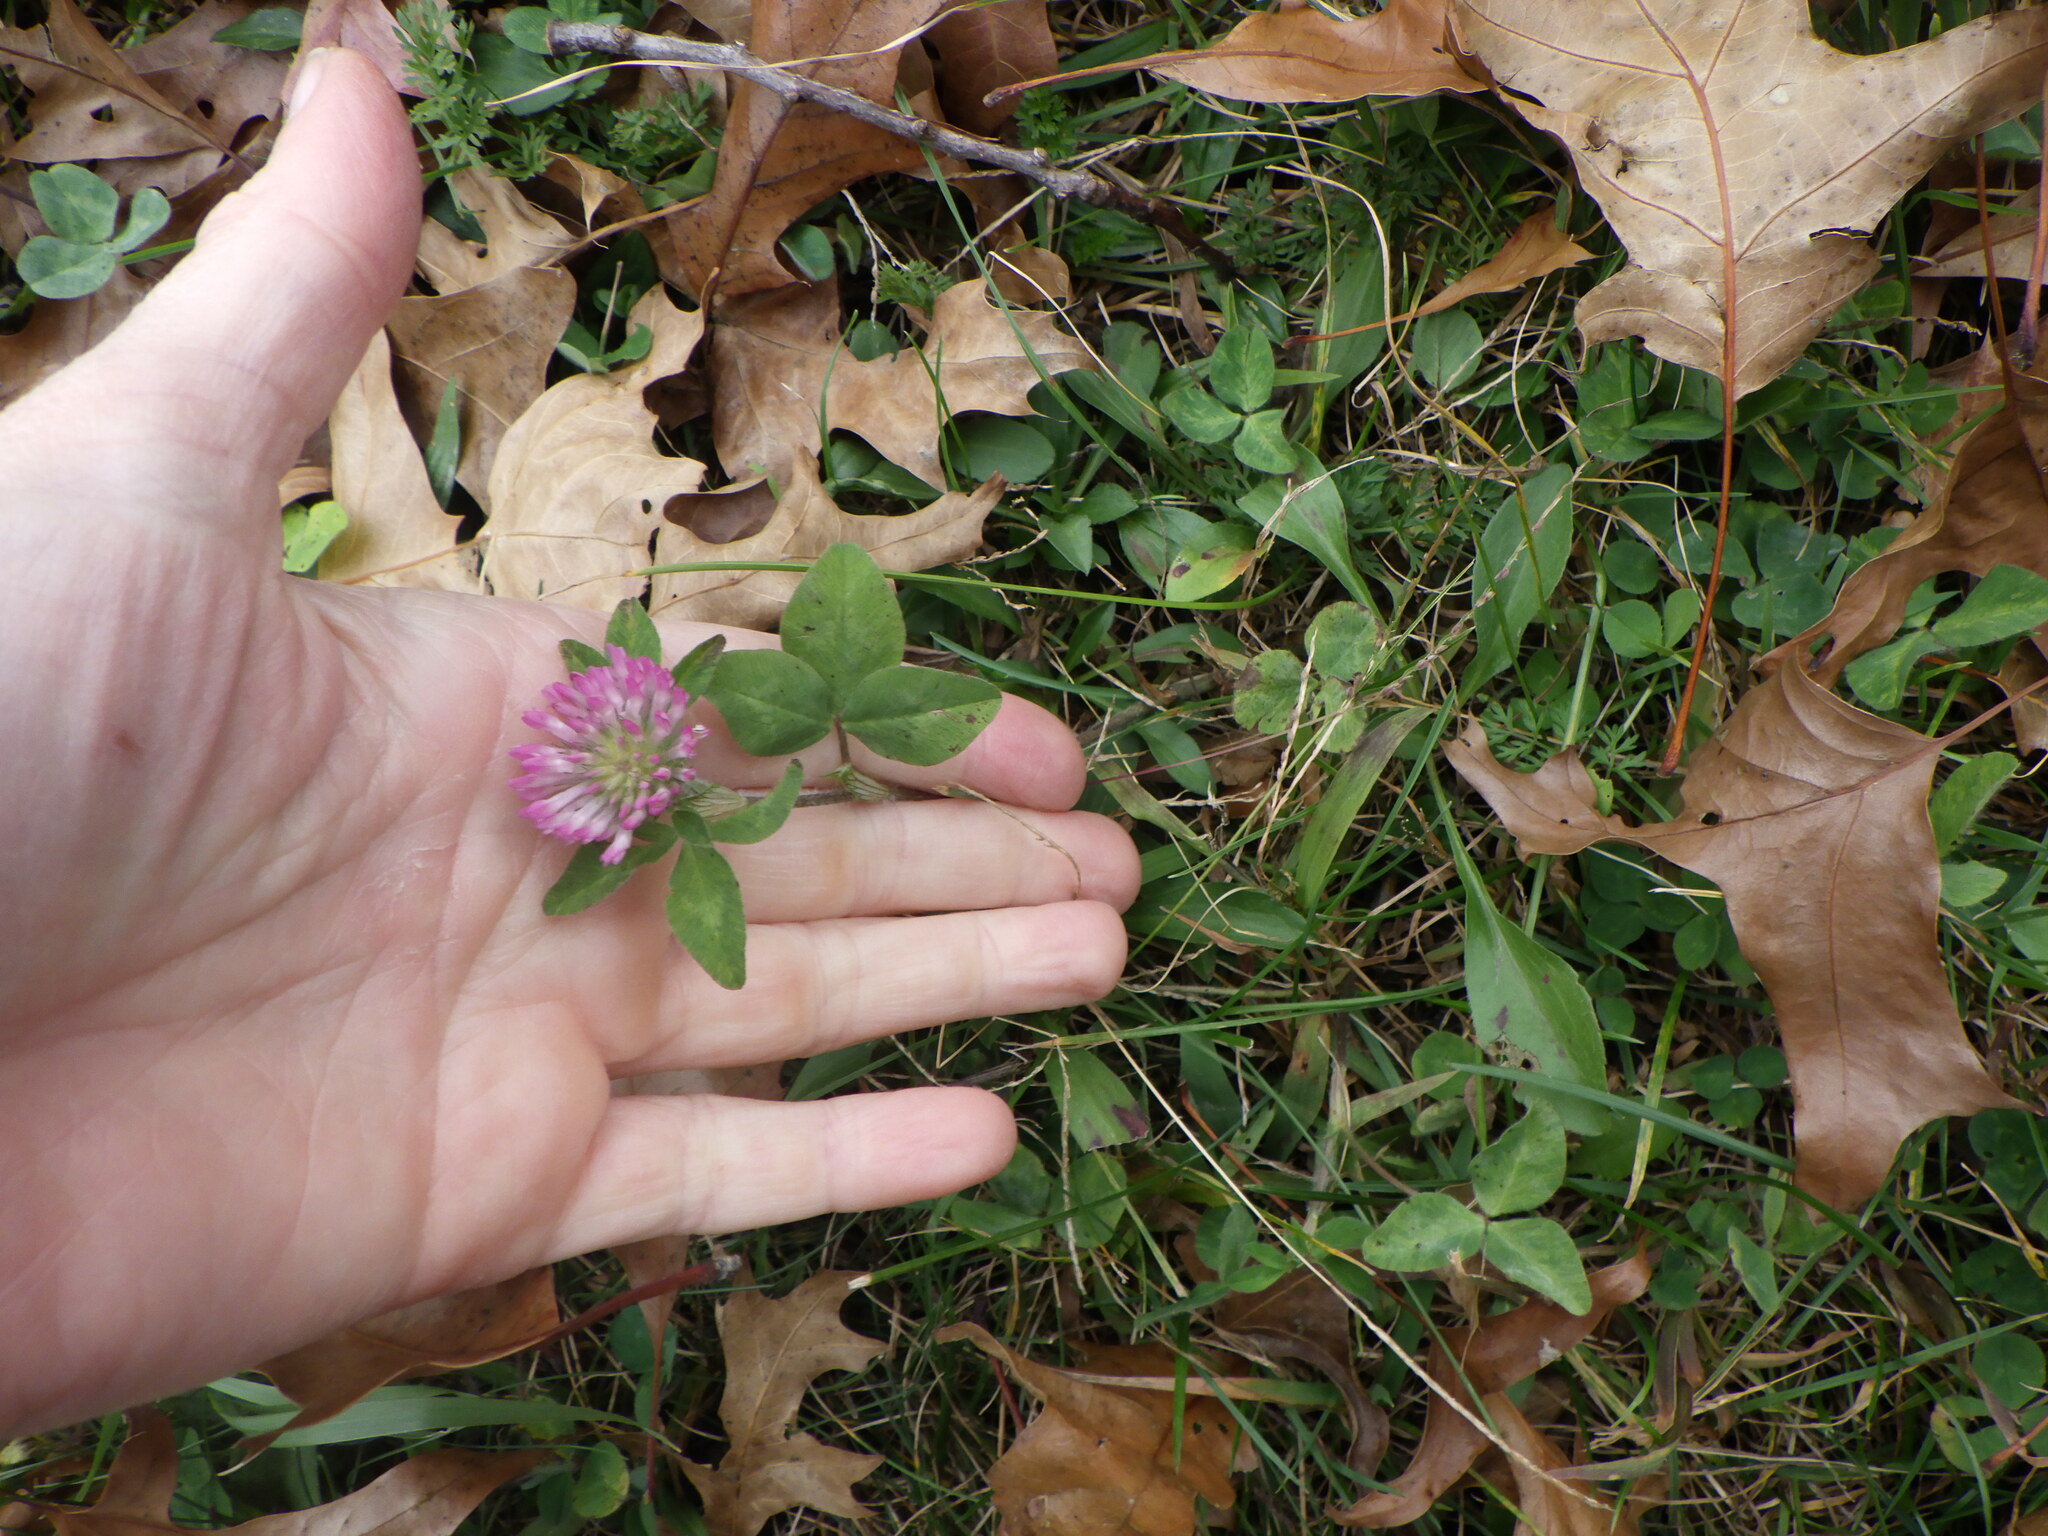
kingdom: Plantae
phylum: Tracheophyta
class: Magnoliopsida
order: Fabales
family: Fabaceae
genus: Trifolium
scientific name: Trifolium pratense
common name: Red clover
